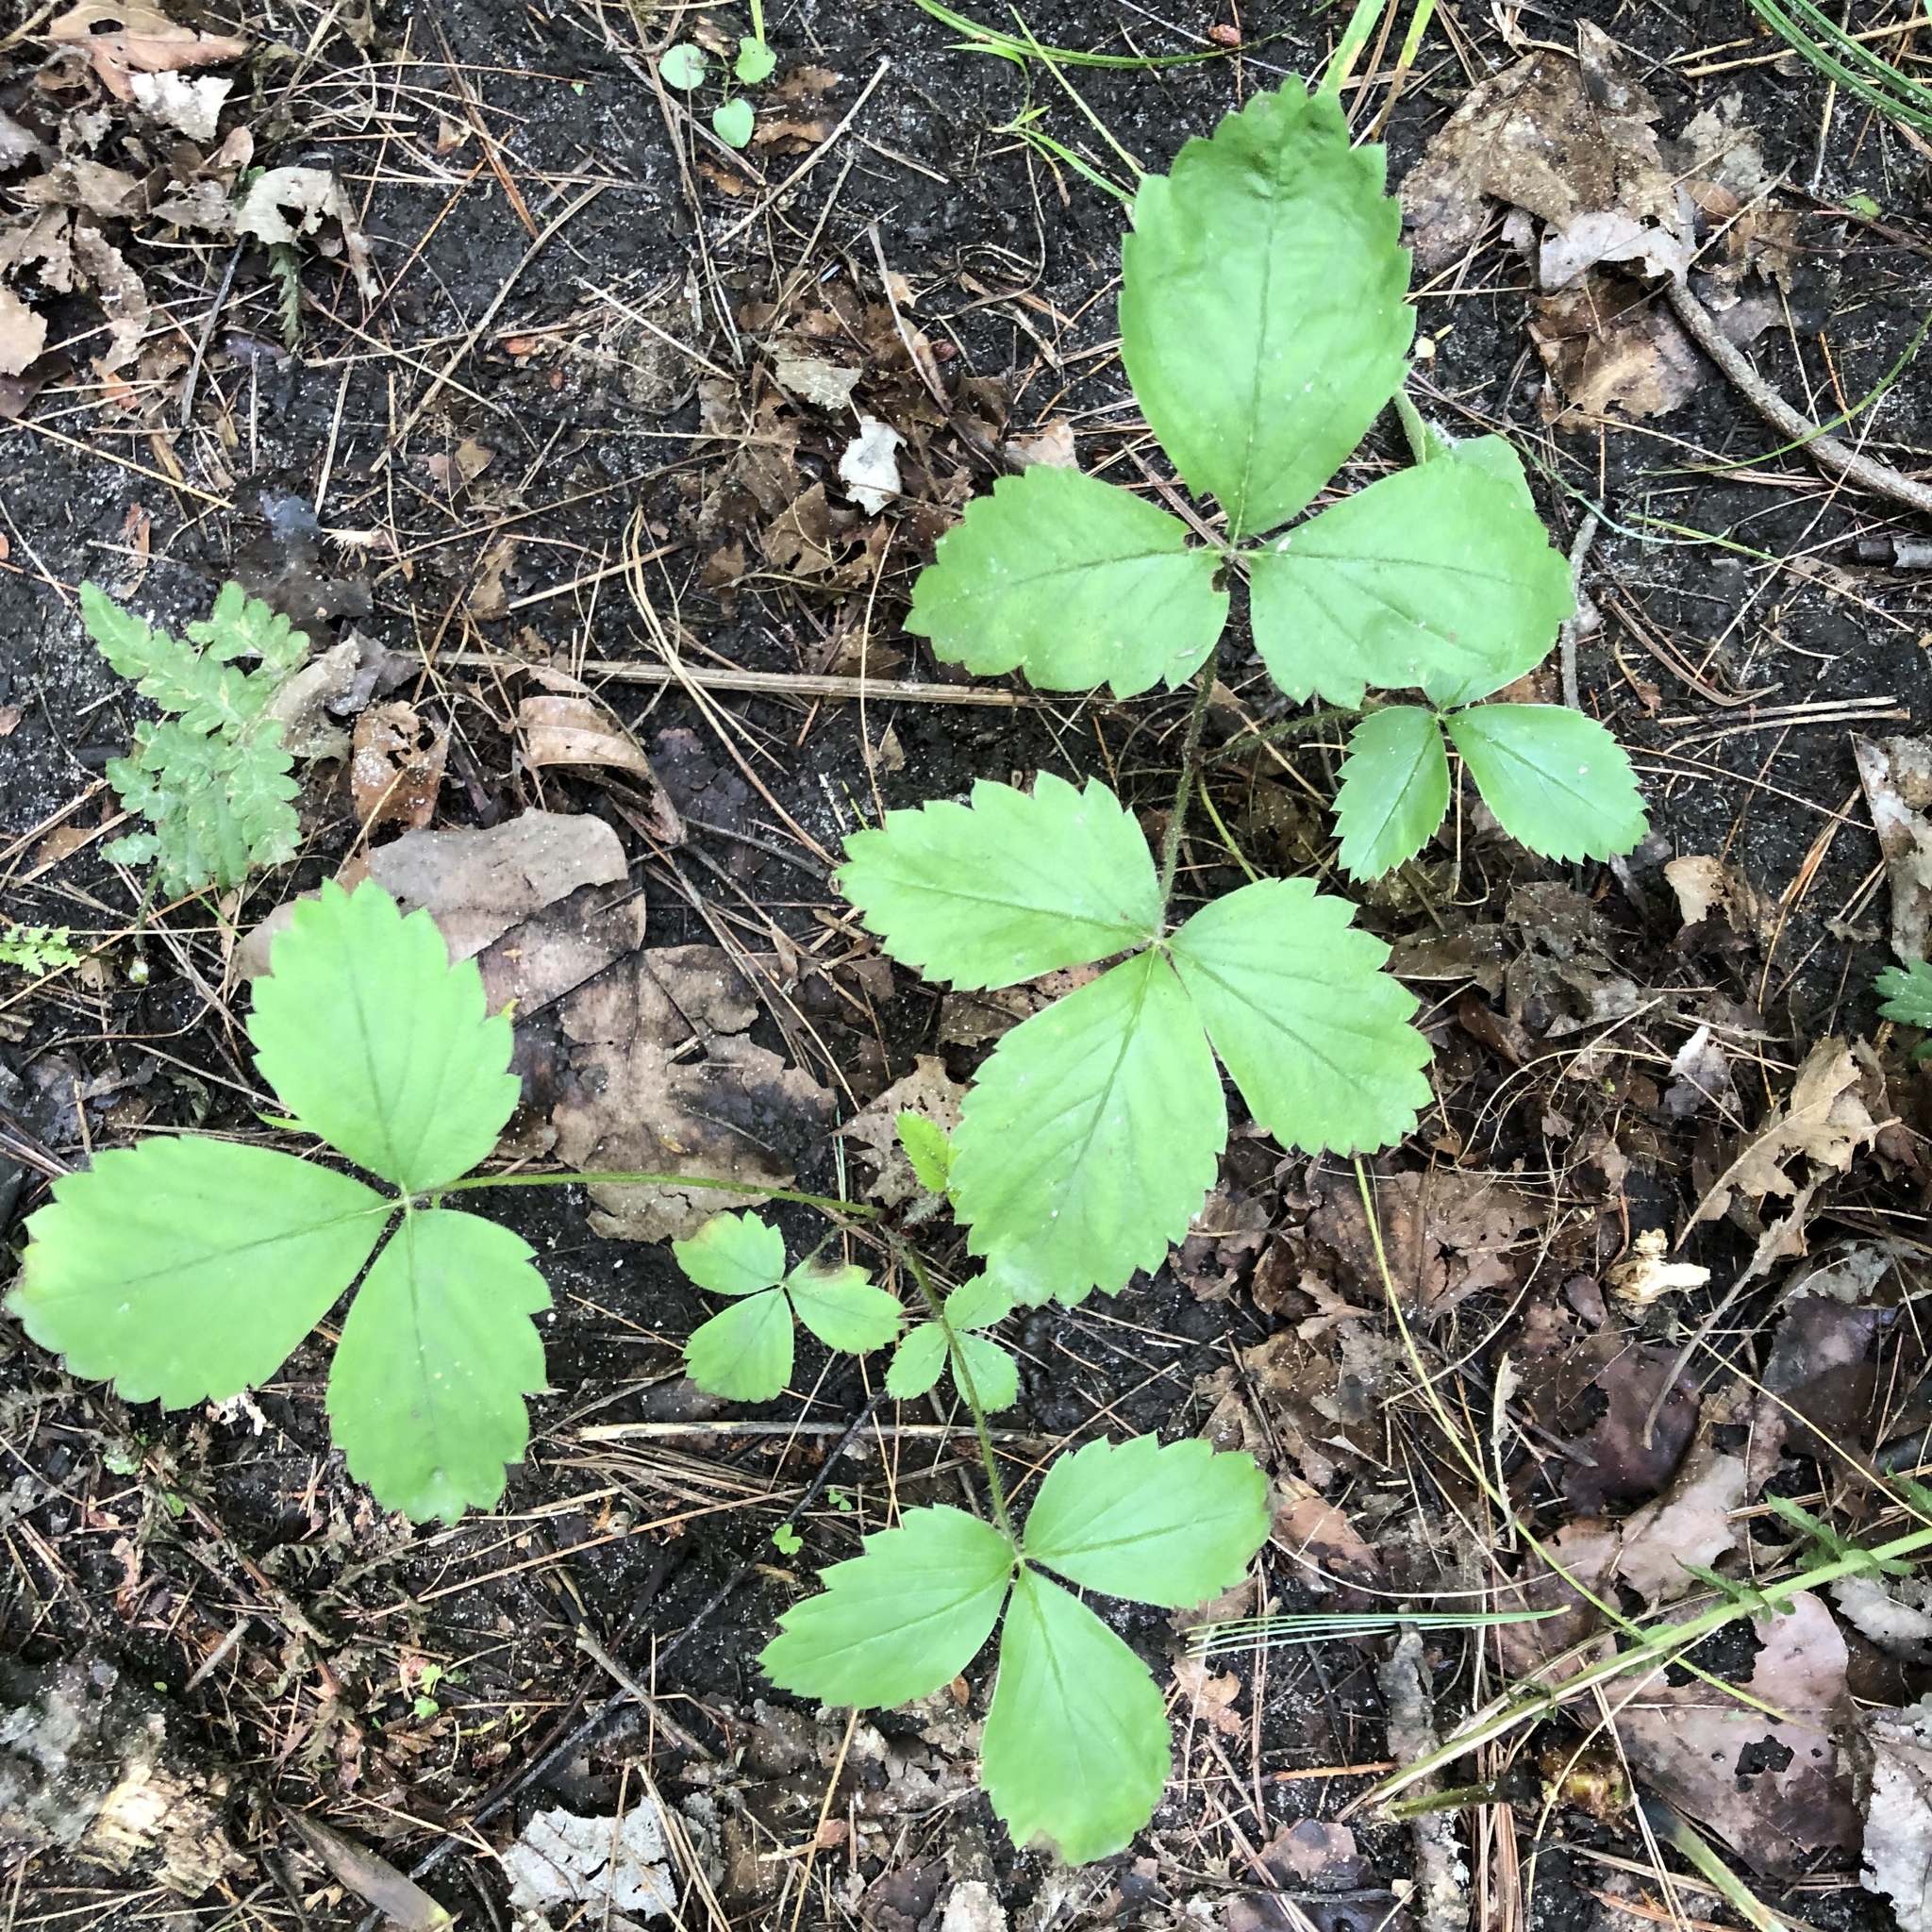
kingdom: Plantae
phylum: Tracheophyta
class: Magnoliopsida
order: Rosales
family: Rosaceae
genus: Fragaria
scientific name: Fragaria virginiana
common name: Thickleaved wild strawberry
